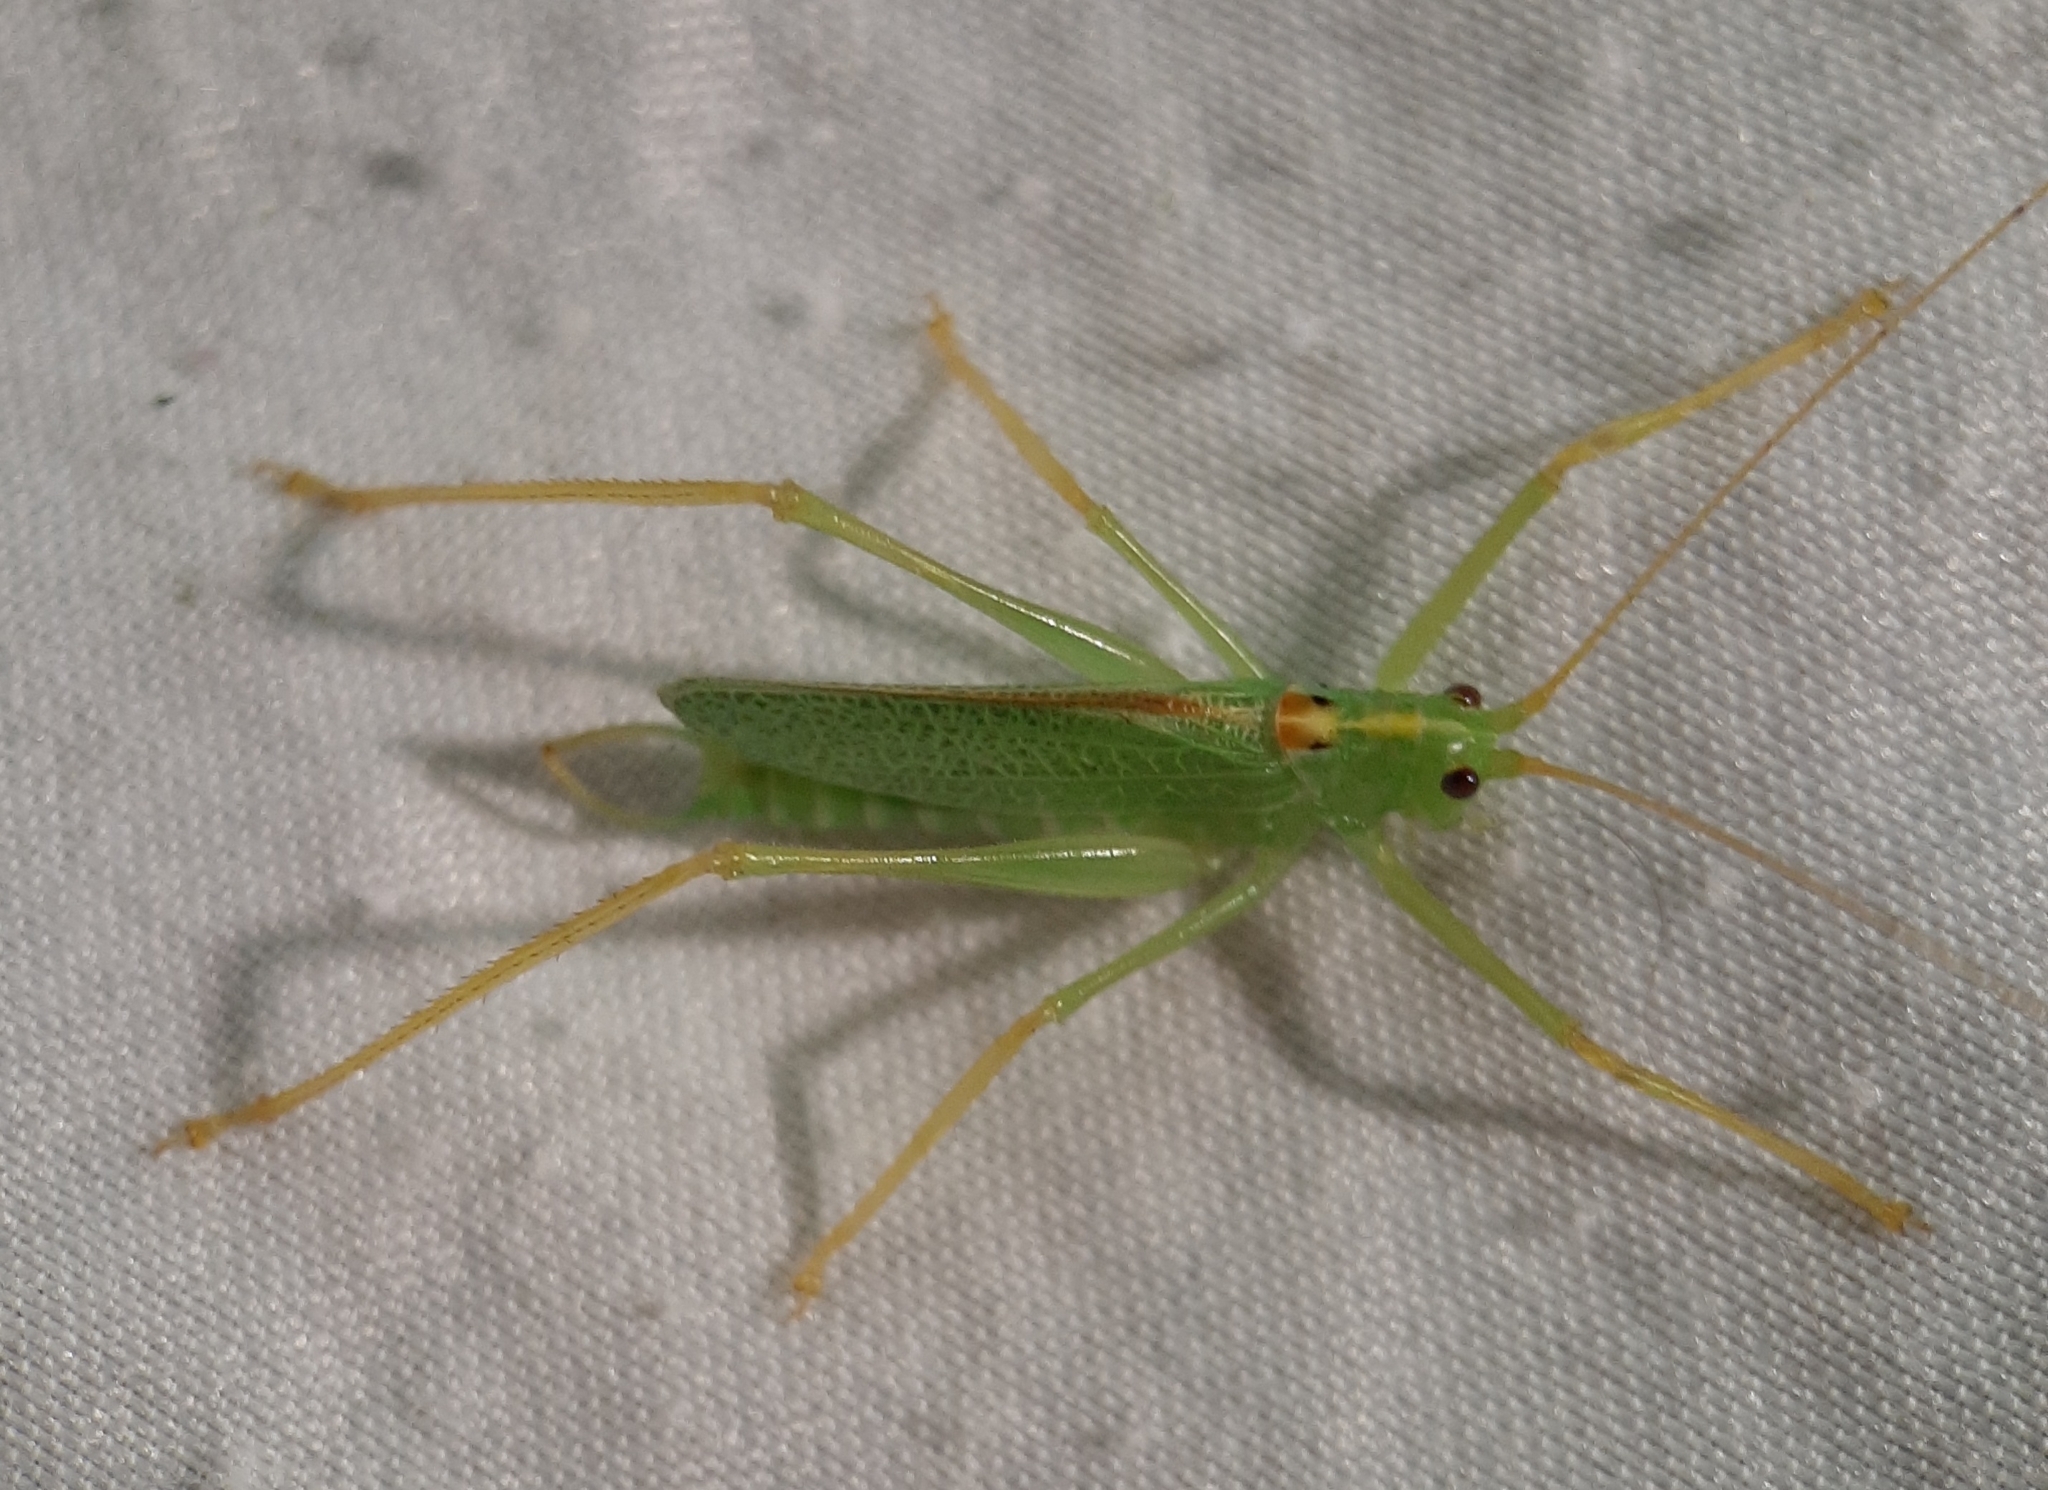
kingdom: Animalia
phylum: Arthropoda
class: Insecta
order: Orthoptera
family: Tettigoniidae
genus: Meconema
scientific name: Meconema thalassinum
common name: Oak bush-cricket
